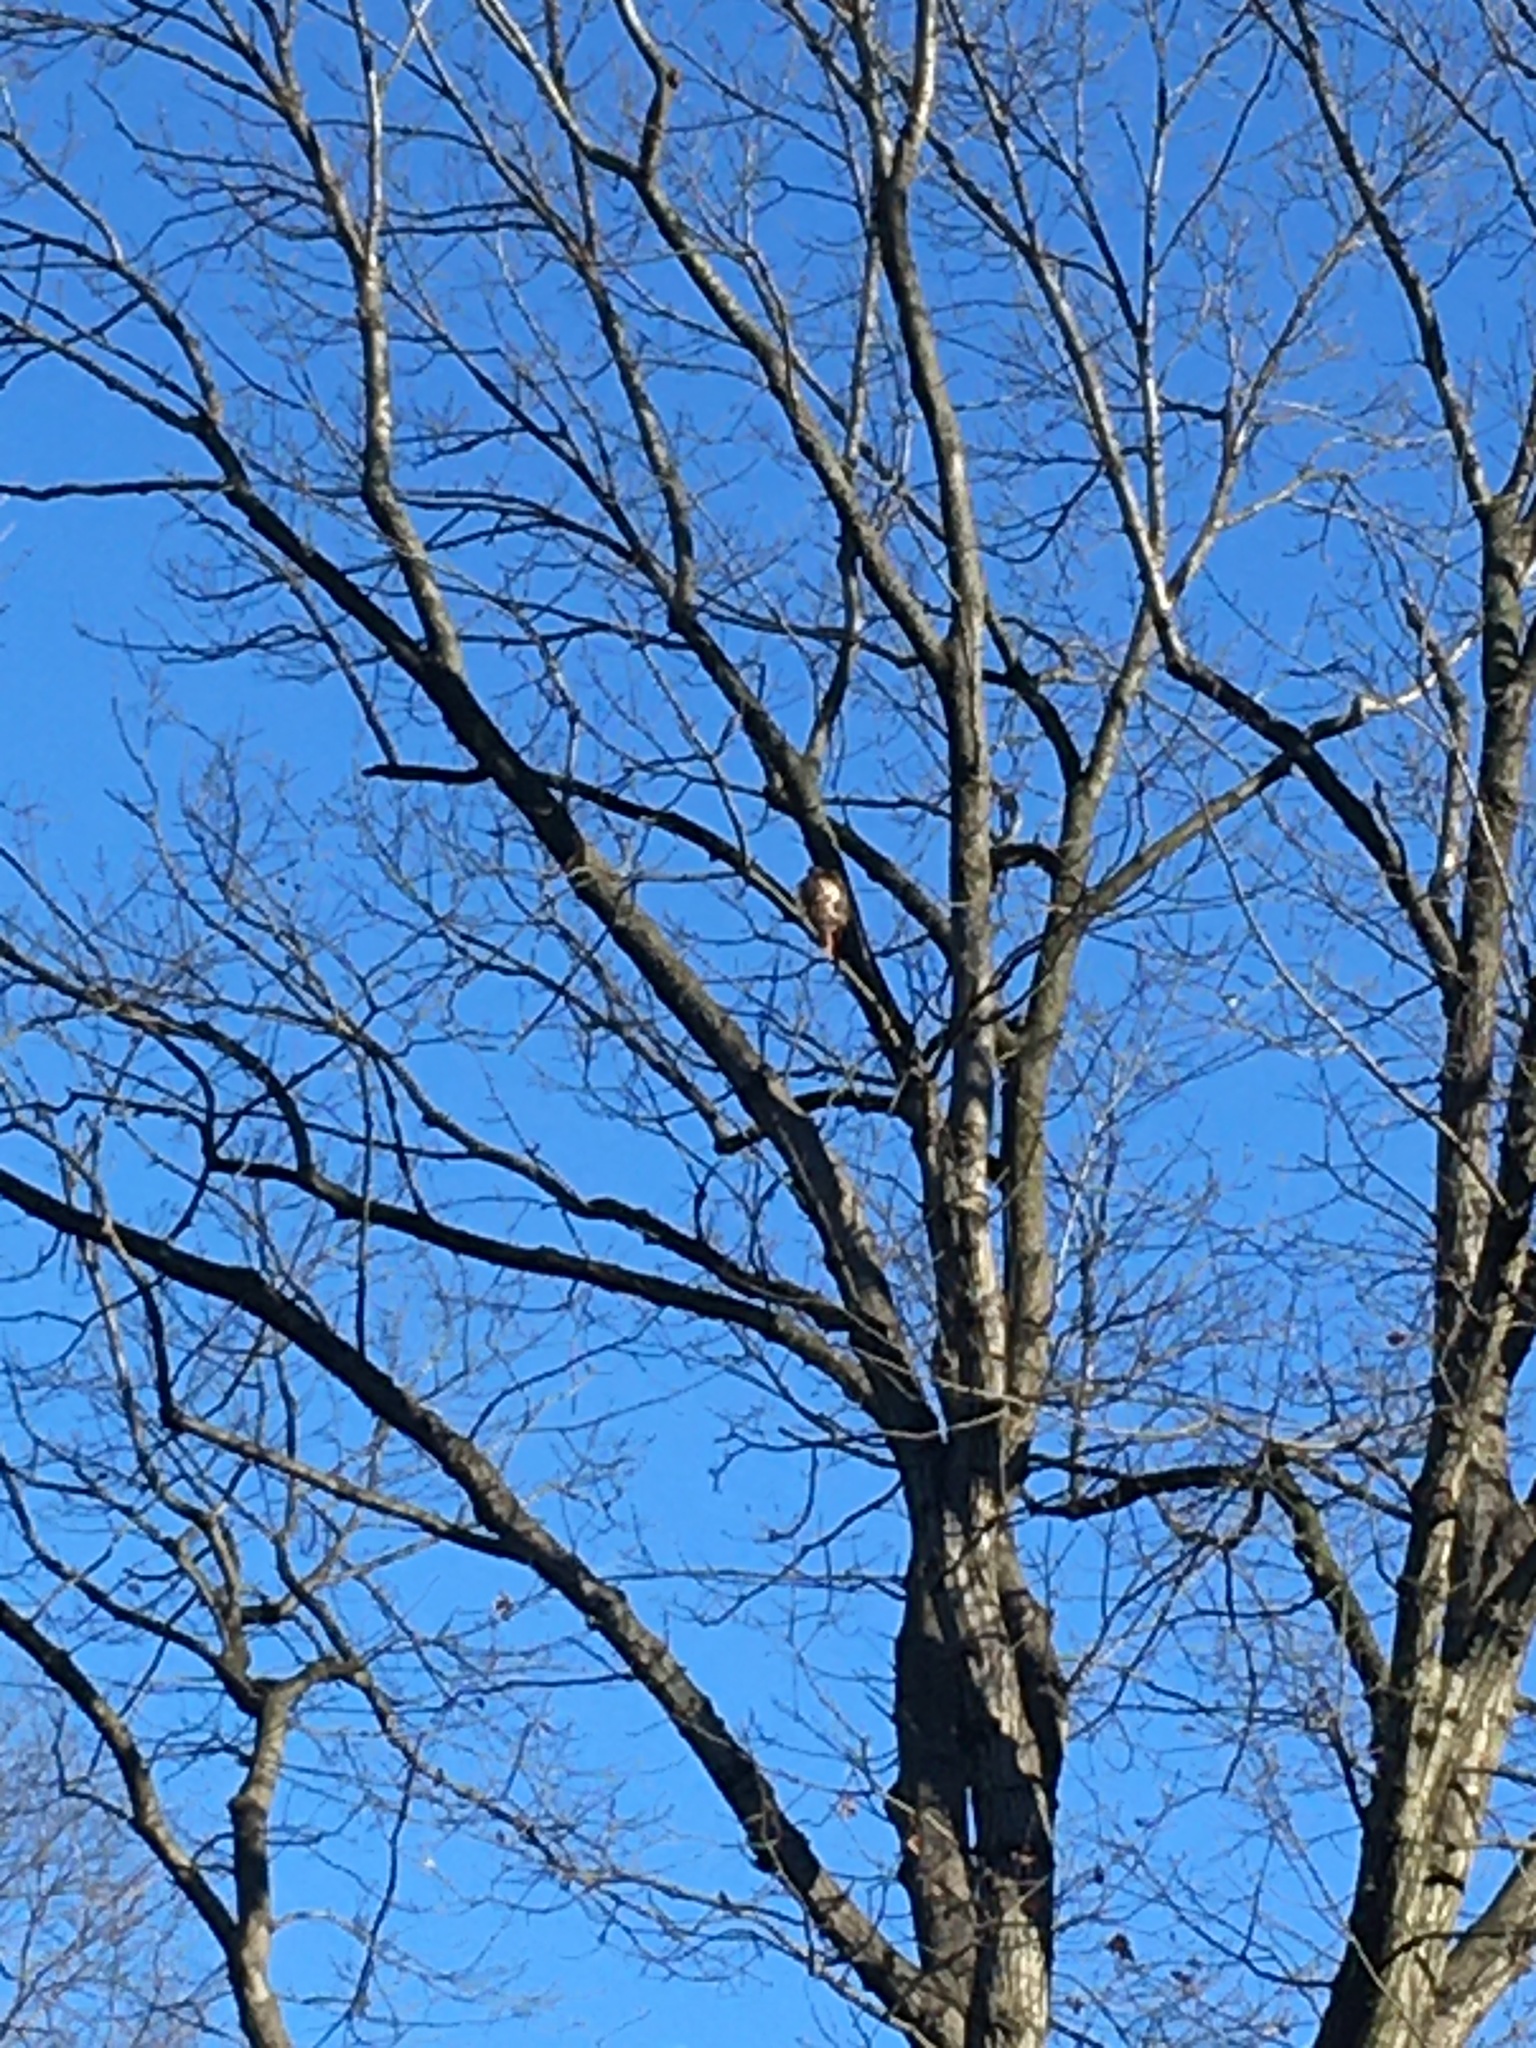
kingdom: Animalia
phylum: Chordata
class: Aves
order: Accipitriformes
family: Accipitridae
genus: Buteo
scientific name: Buteo jamaicensis
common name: Red-tailed hawk
